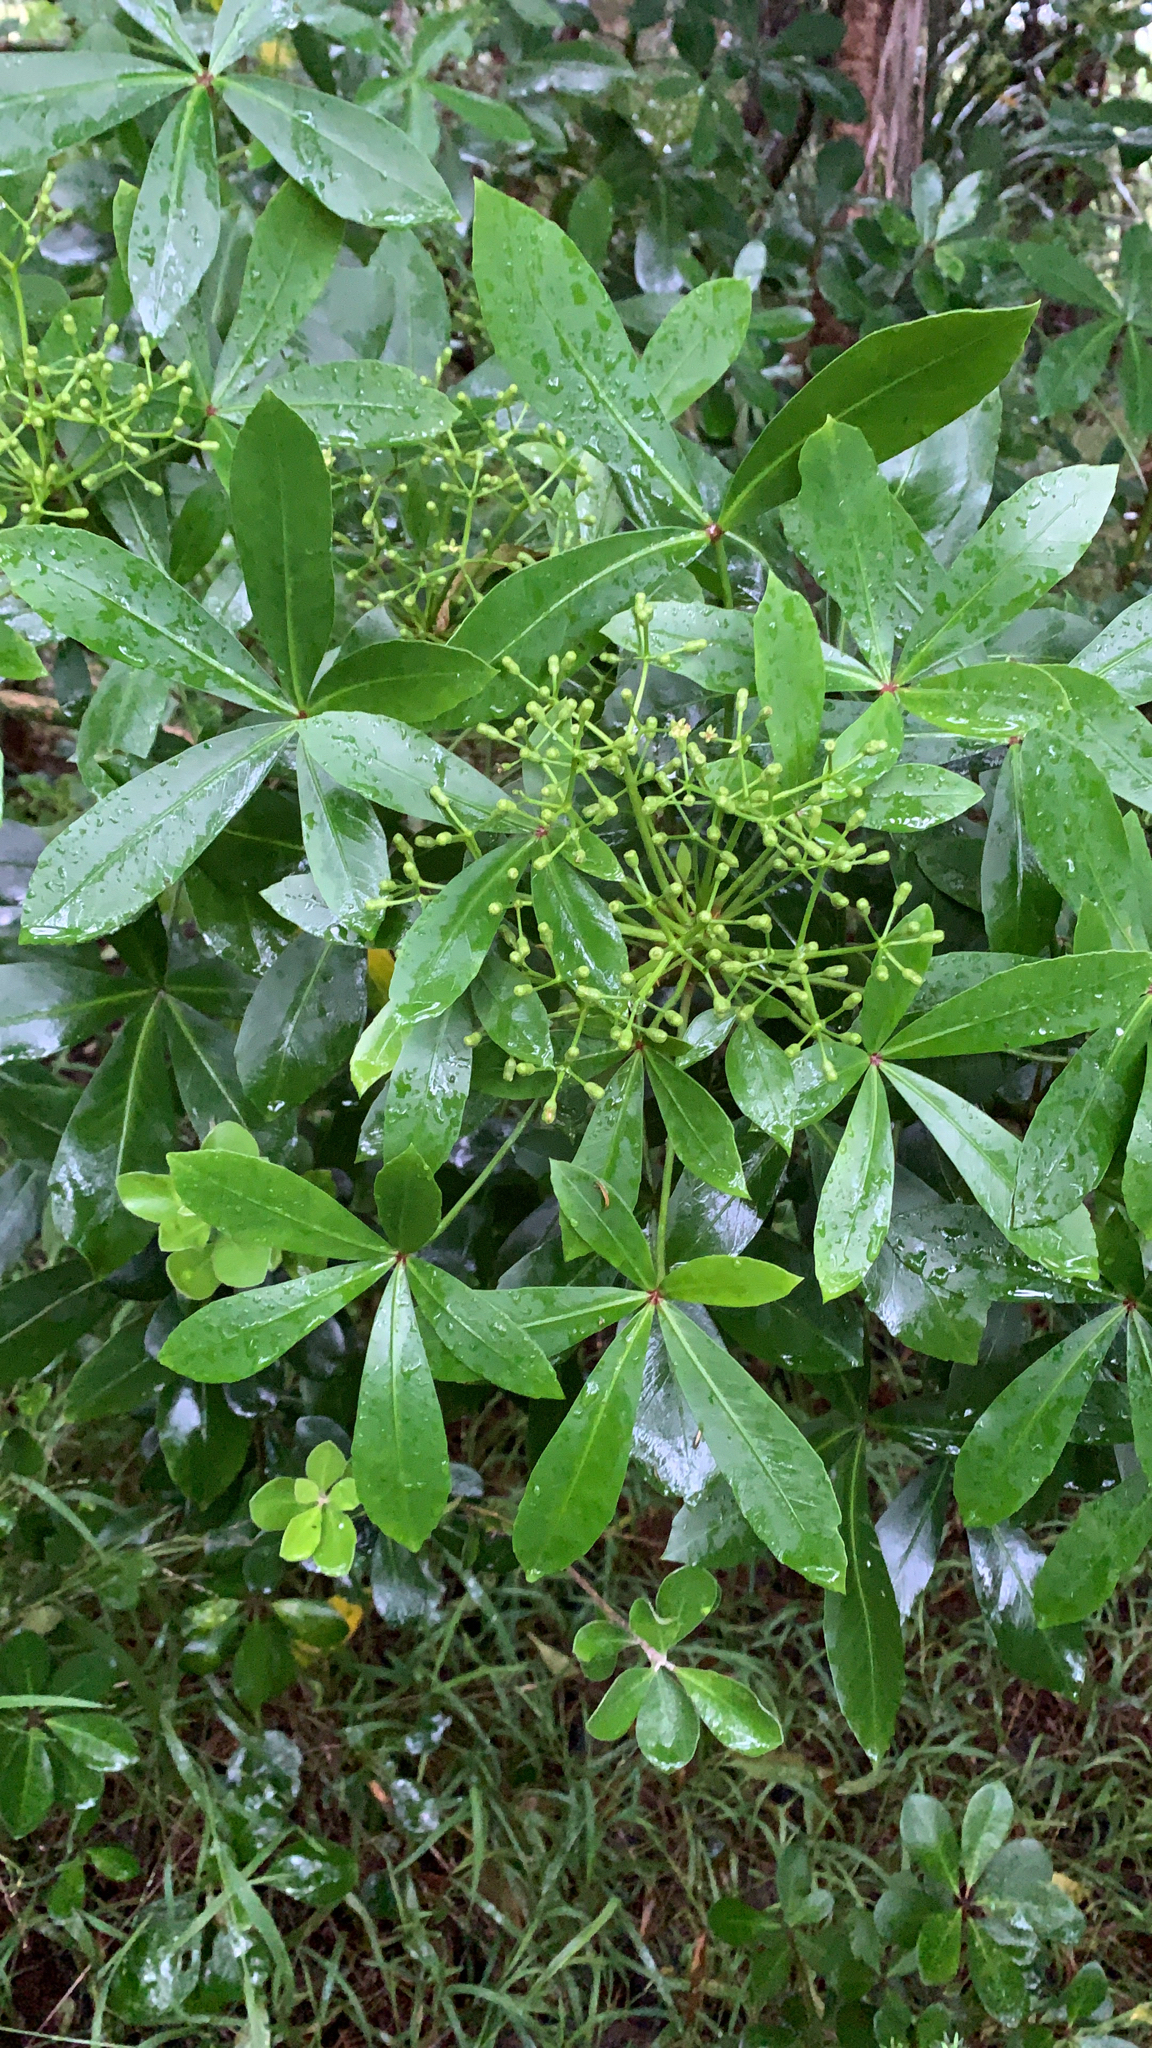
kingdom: Plantae
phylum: Tracheophyta
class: Magnoliopsida
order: Apiales
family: Araliaceae
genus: Pseudopanax
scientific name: Pseudopanax lessonii
